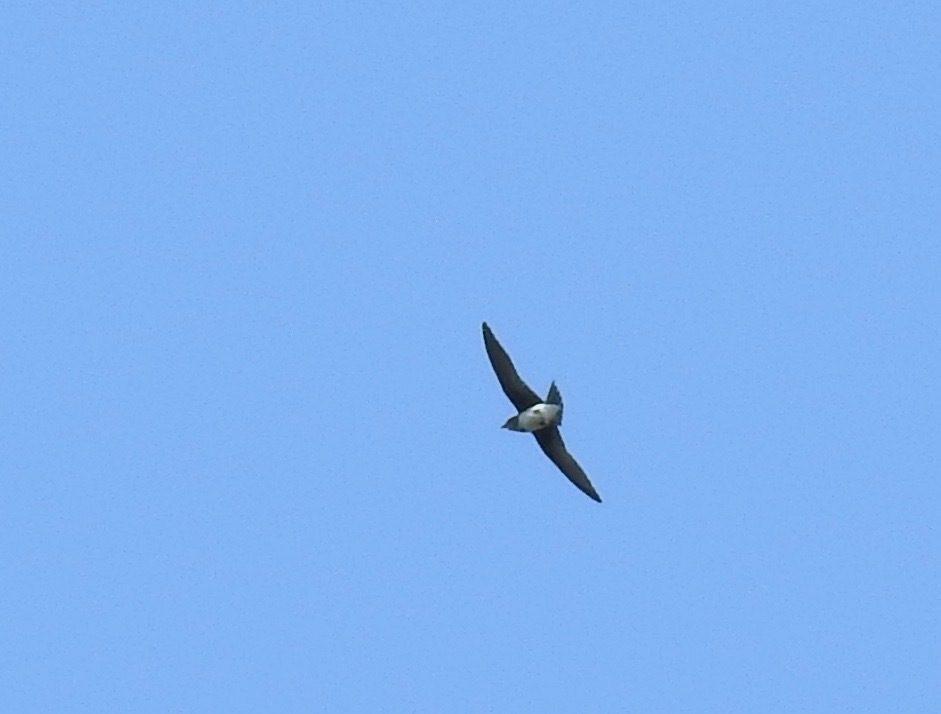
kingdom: Animalia
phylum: Chordata
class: Aves
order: Passeriformes
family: Hirundinidae
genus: Progne
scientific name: Progne chalybea
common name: Grey-breasted martin
